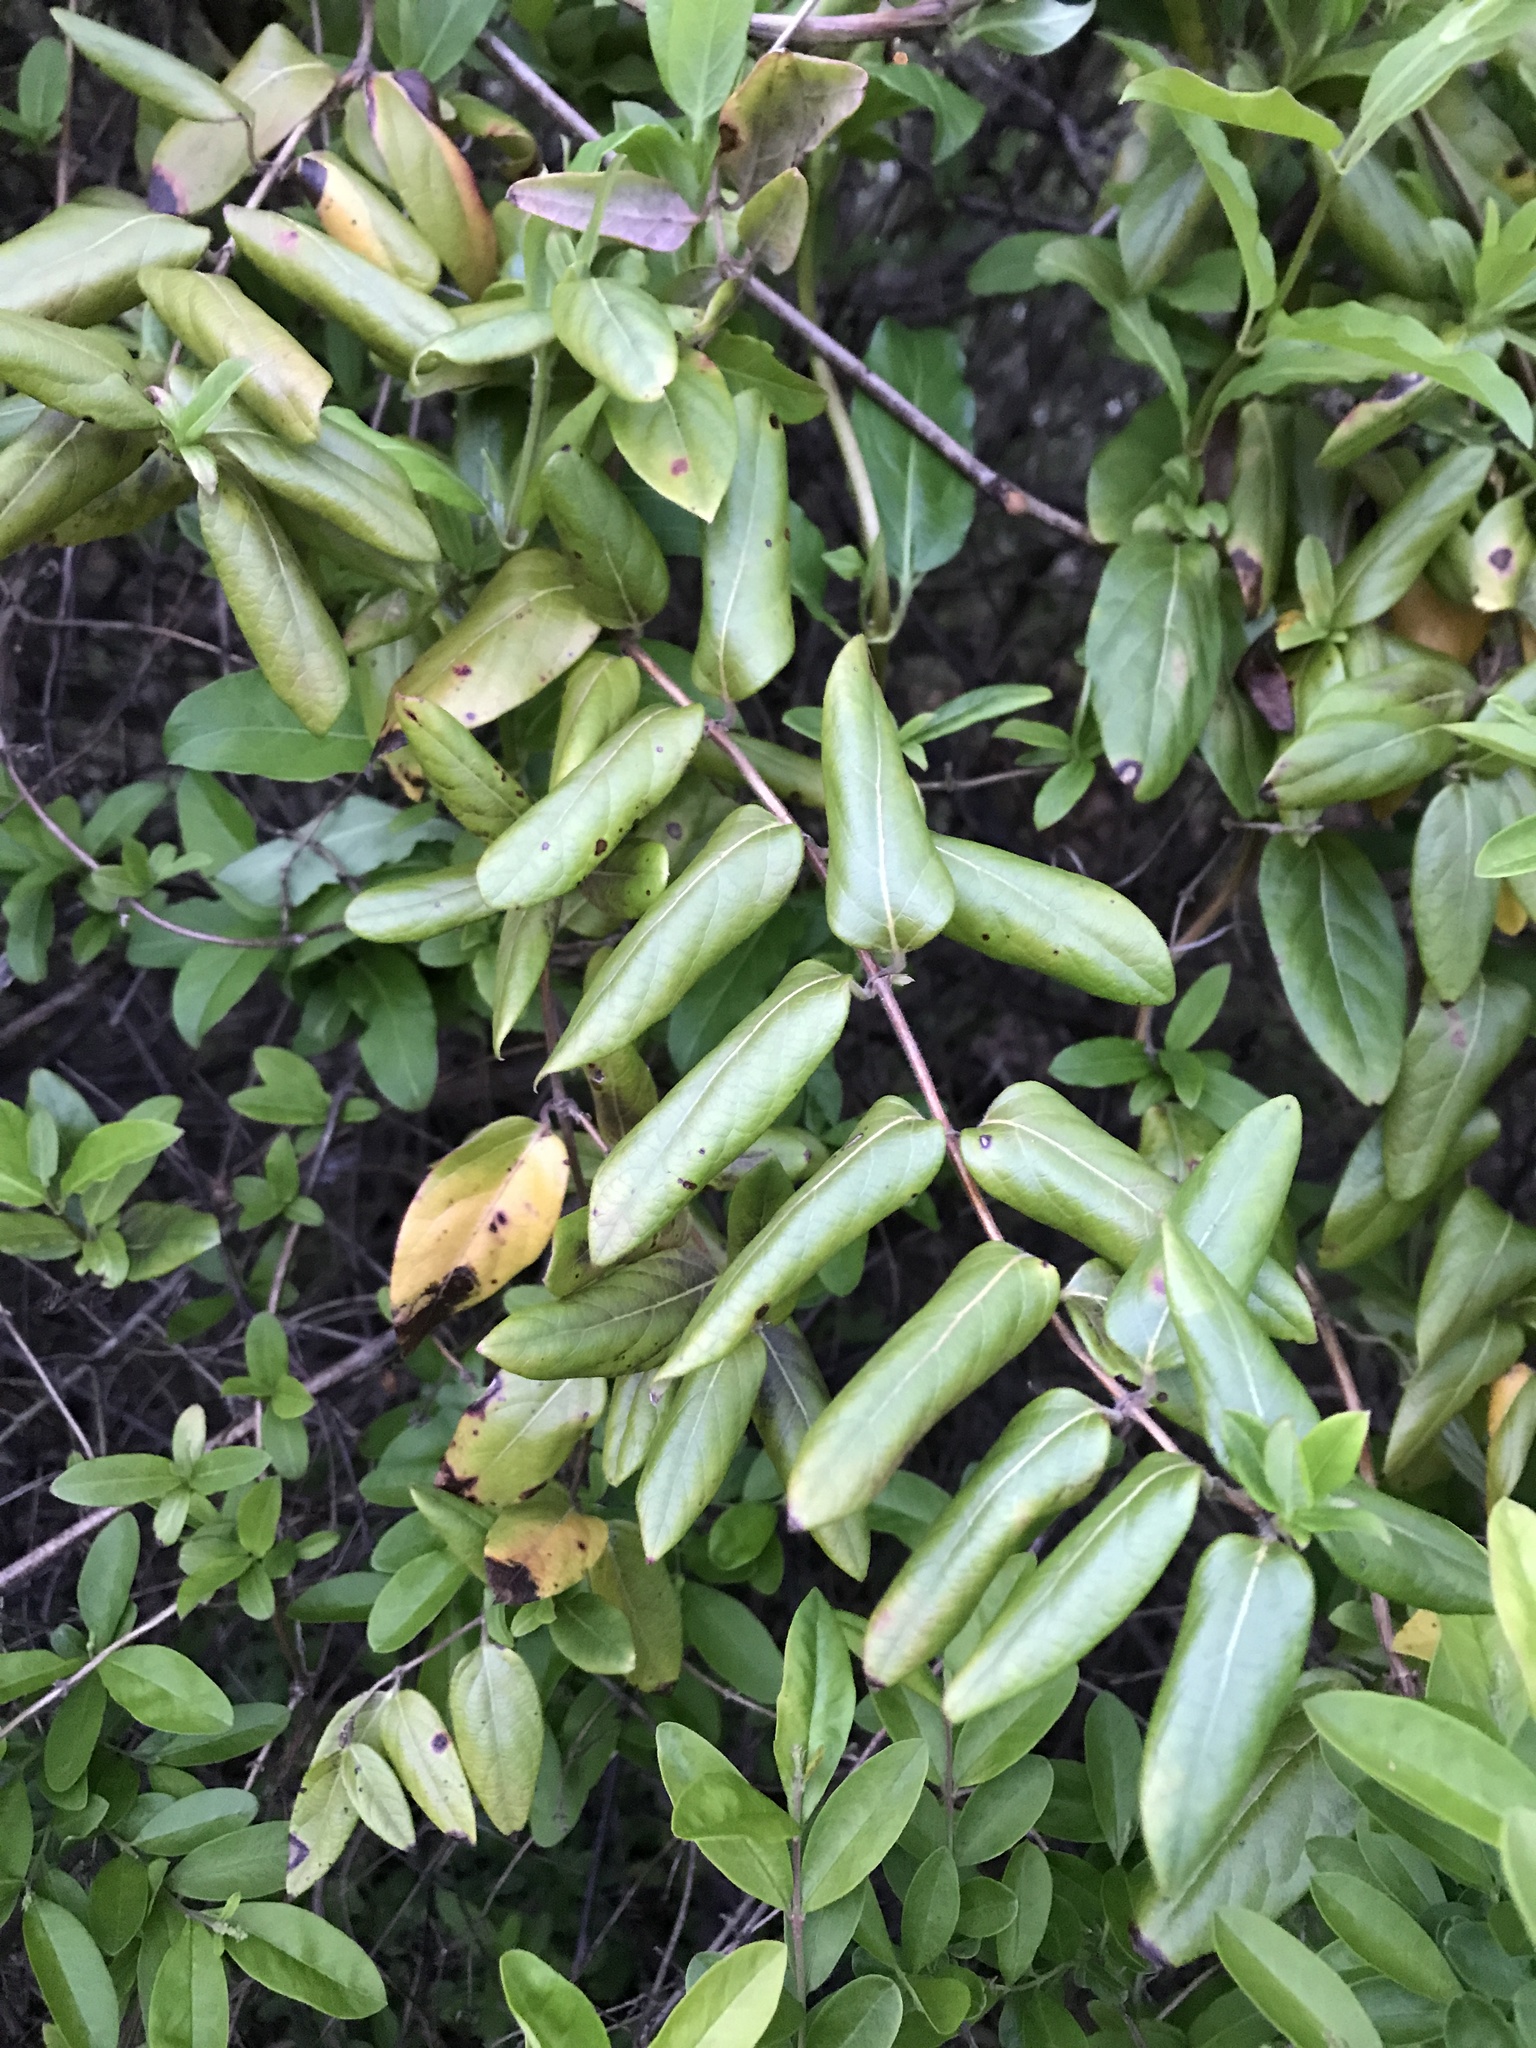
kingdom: Plantae
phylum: Tracheophyta
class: Magnoliopsida
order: Dipsacales
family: Caprifoliaceae
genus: Lonicera
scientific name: Lonicera japonica
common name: Japanese honeysuckle
